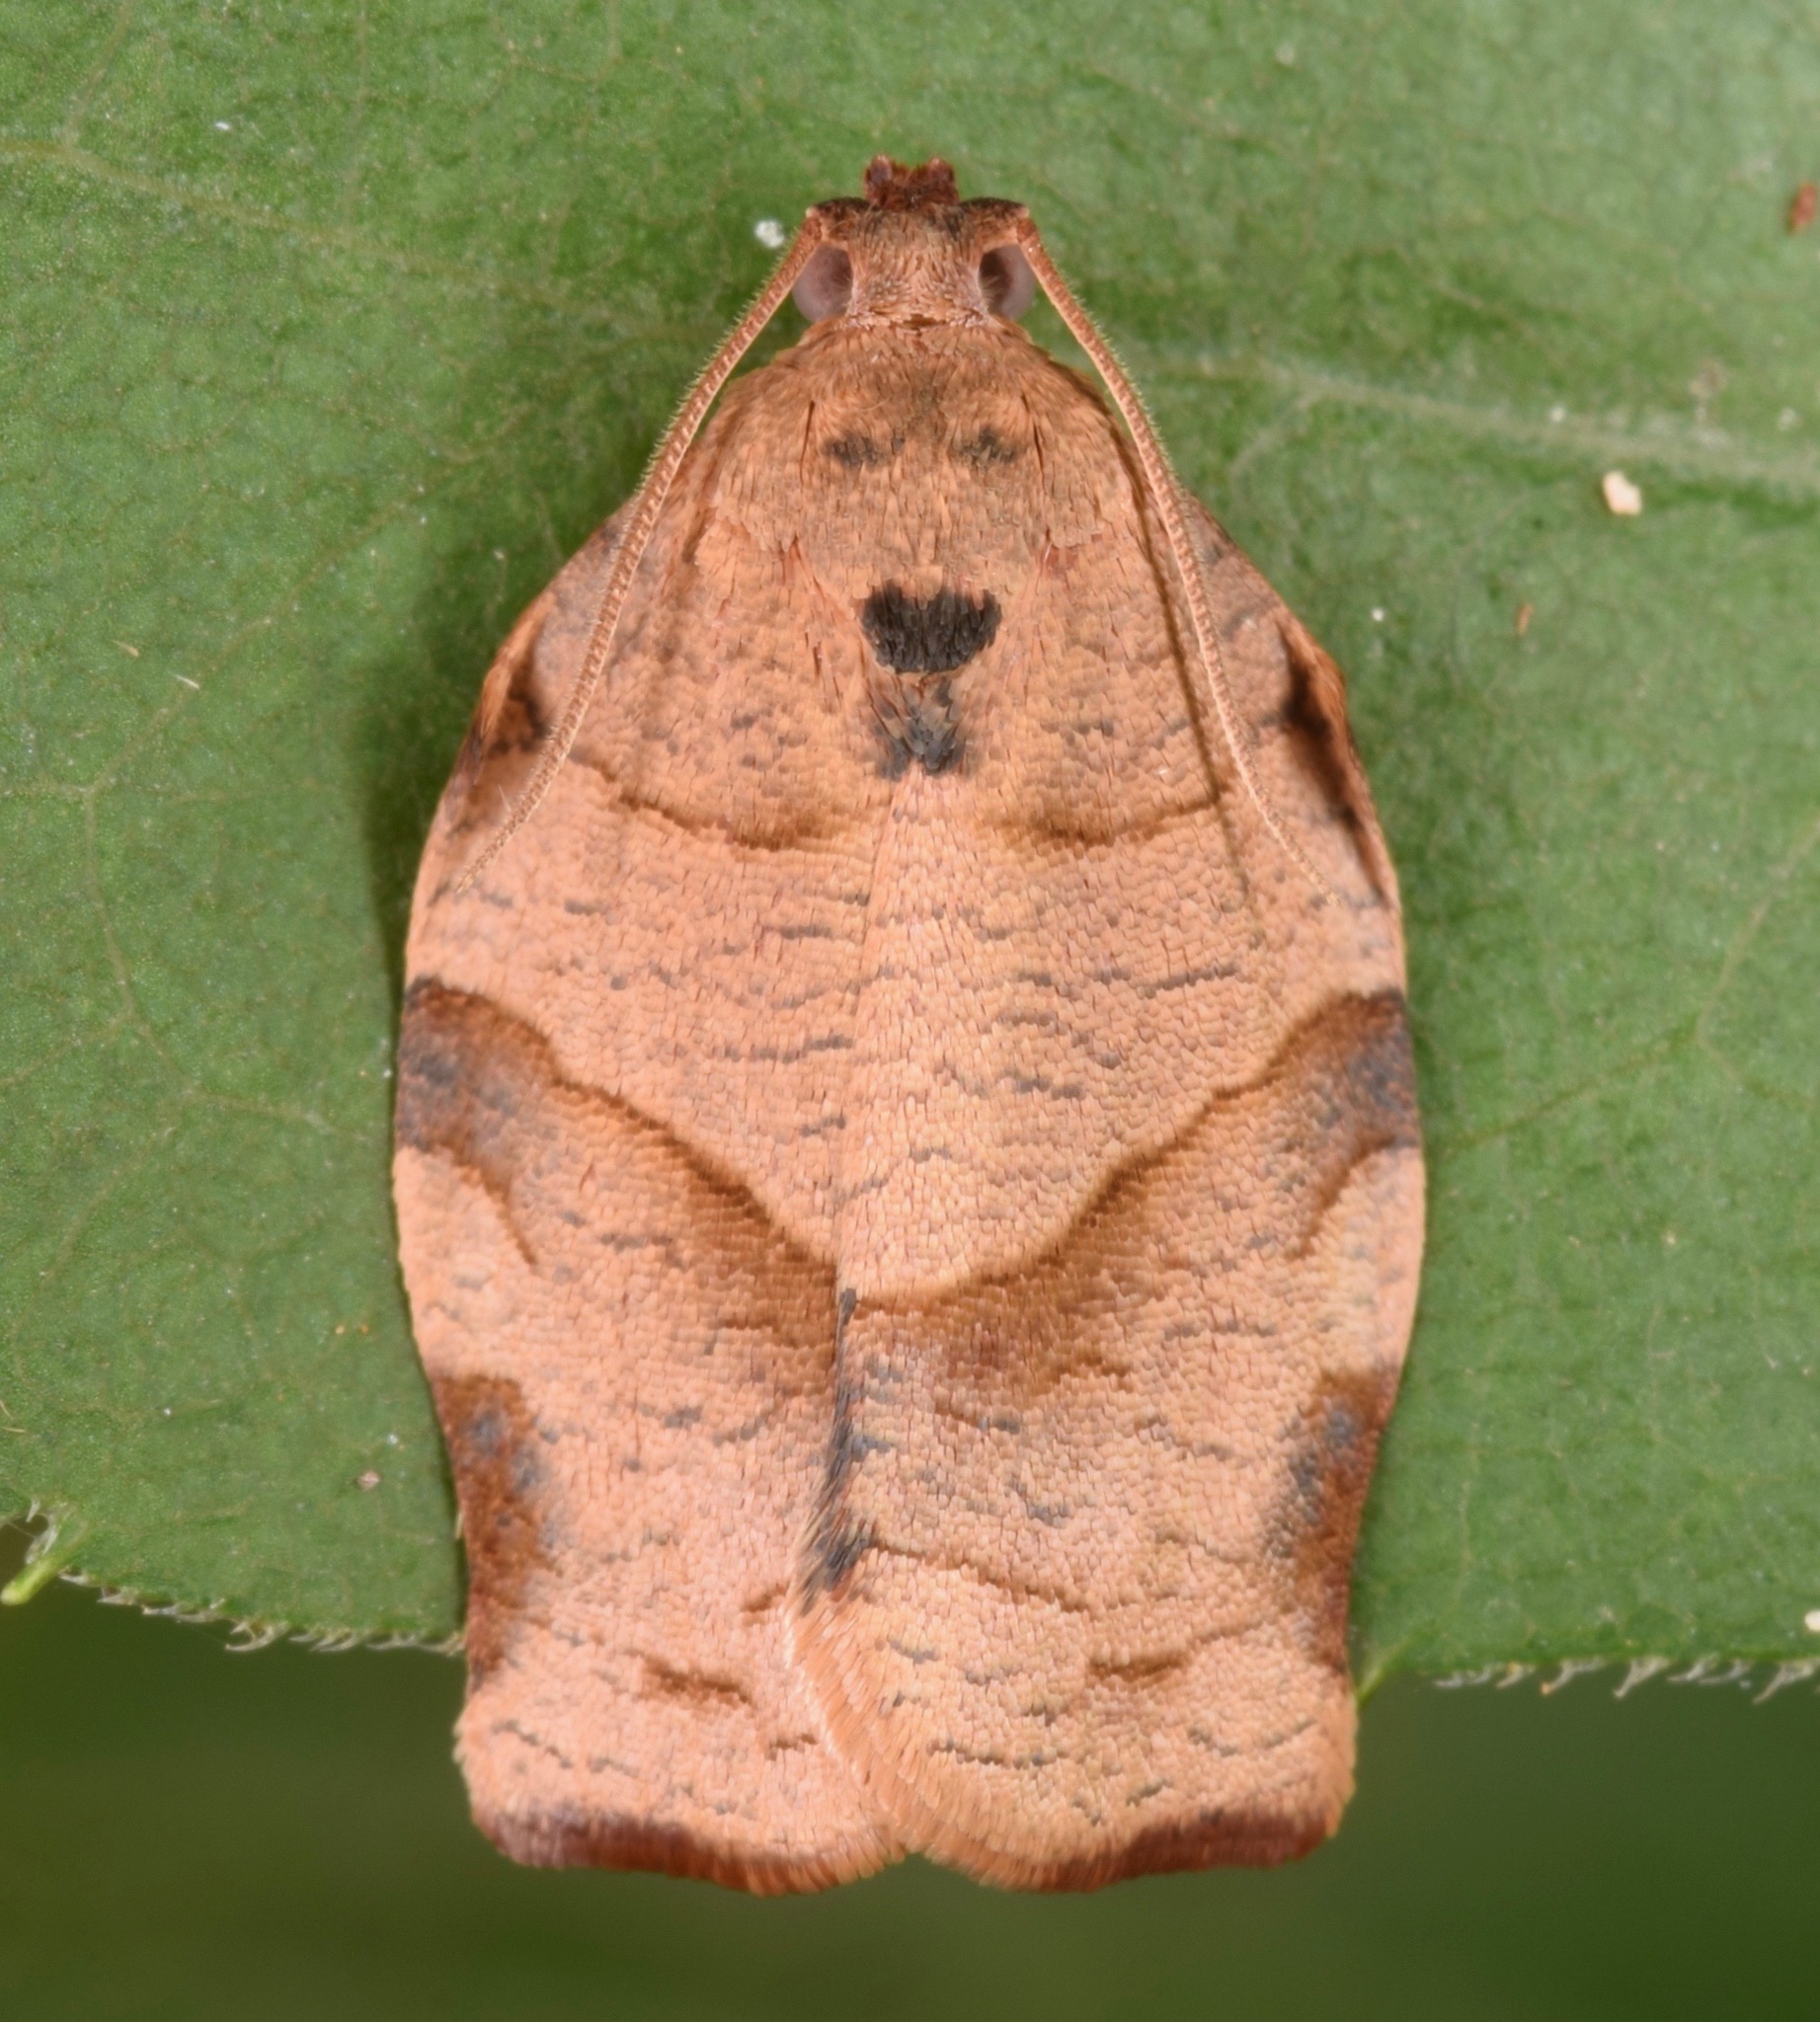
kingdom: Animalia
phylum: Arthropoda
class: Insecta
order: Lepidoptera
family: Tortricidae
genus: Choristoneura
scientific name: Choristoneura rosaceana
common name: Oblique-banded leafroller moth
